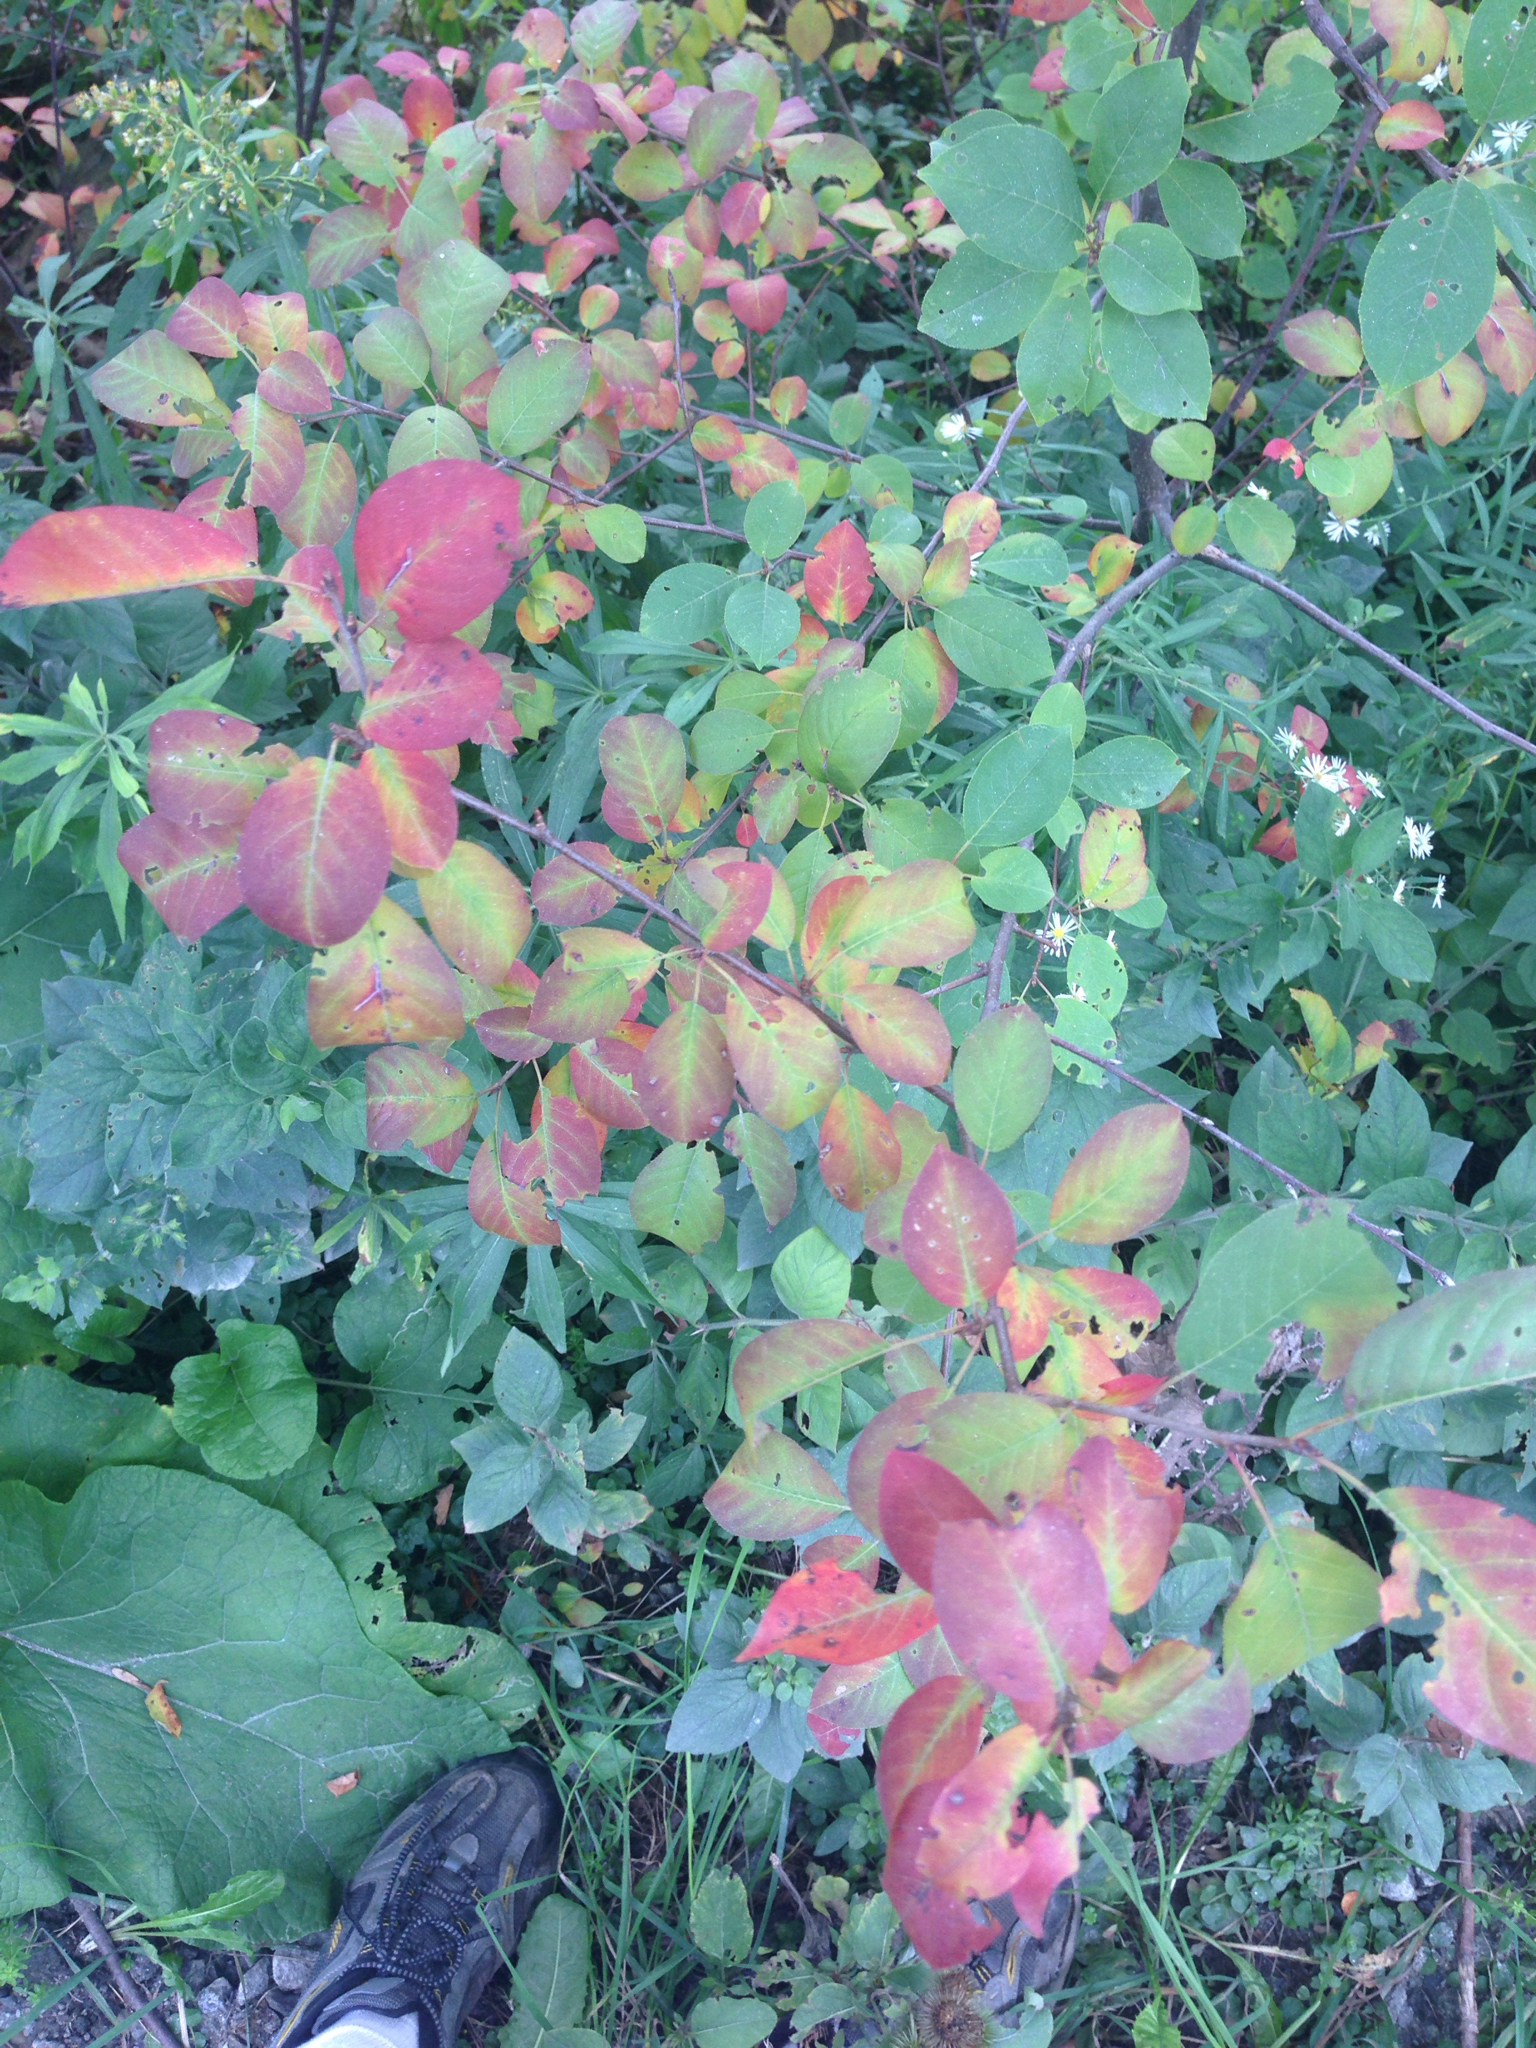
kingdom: Plantae
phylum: Tracheophyta
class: Magnoliopsida
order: Rosales
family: Rosaceae
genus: Prunus
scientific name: Prunus virginiana
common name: Chokecherry
